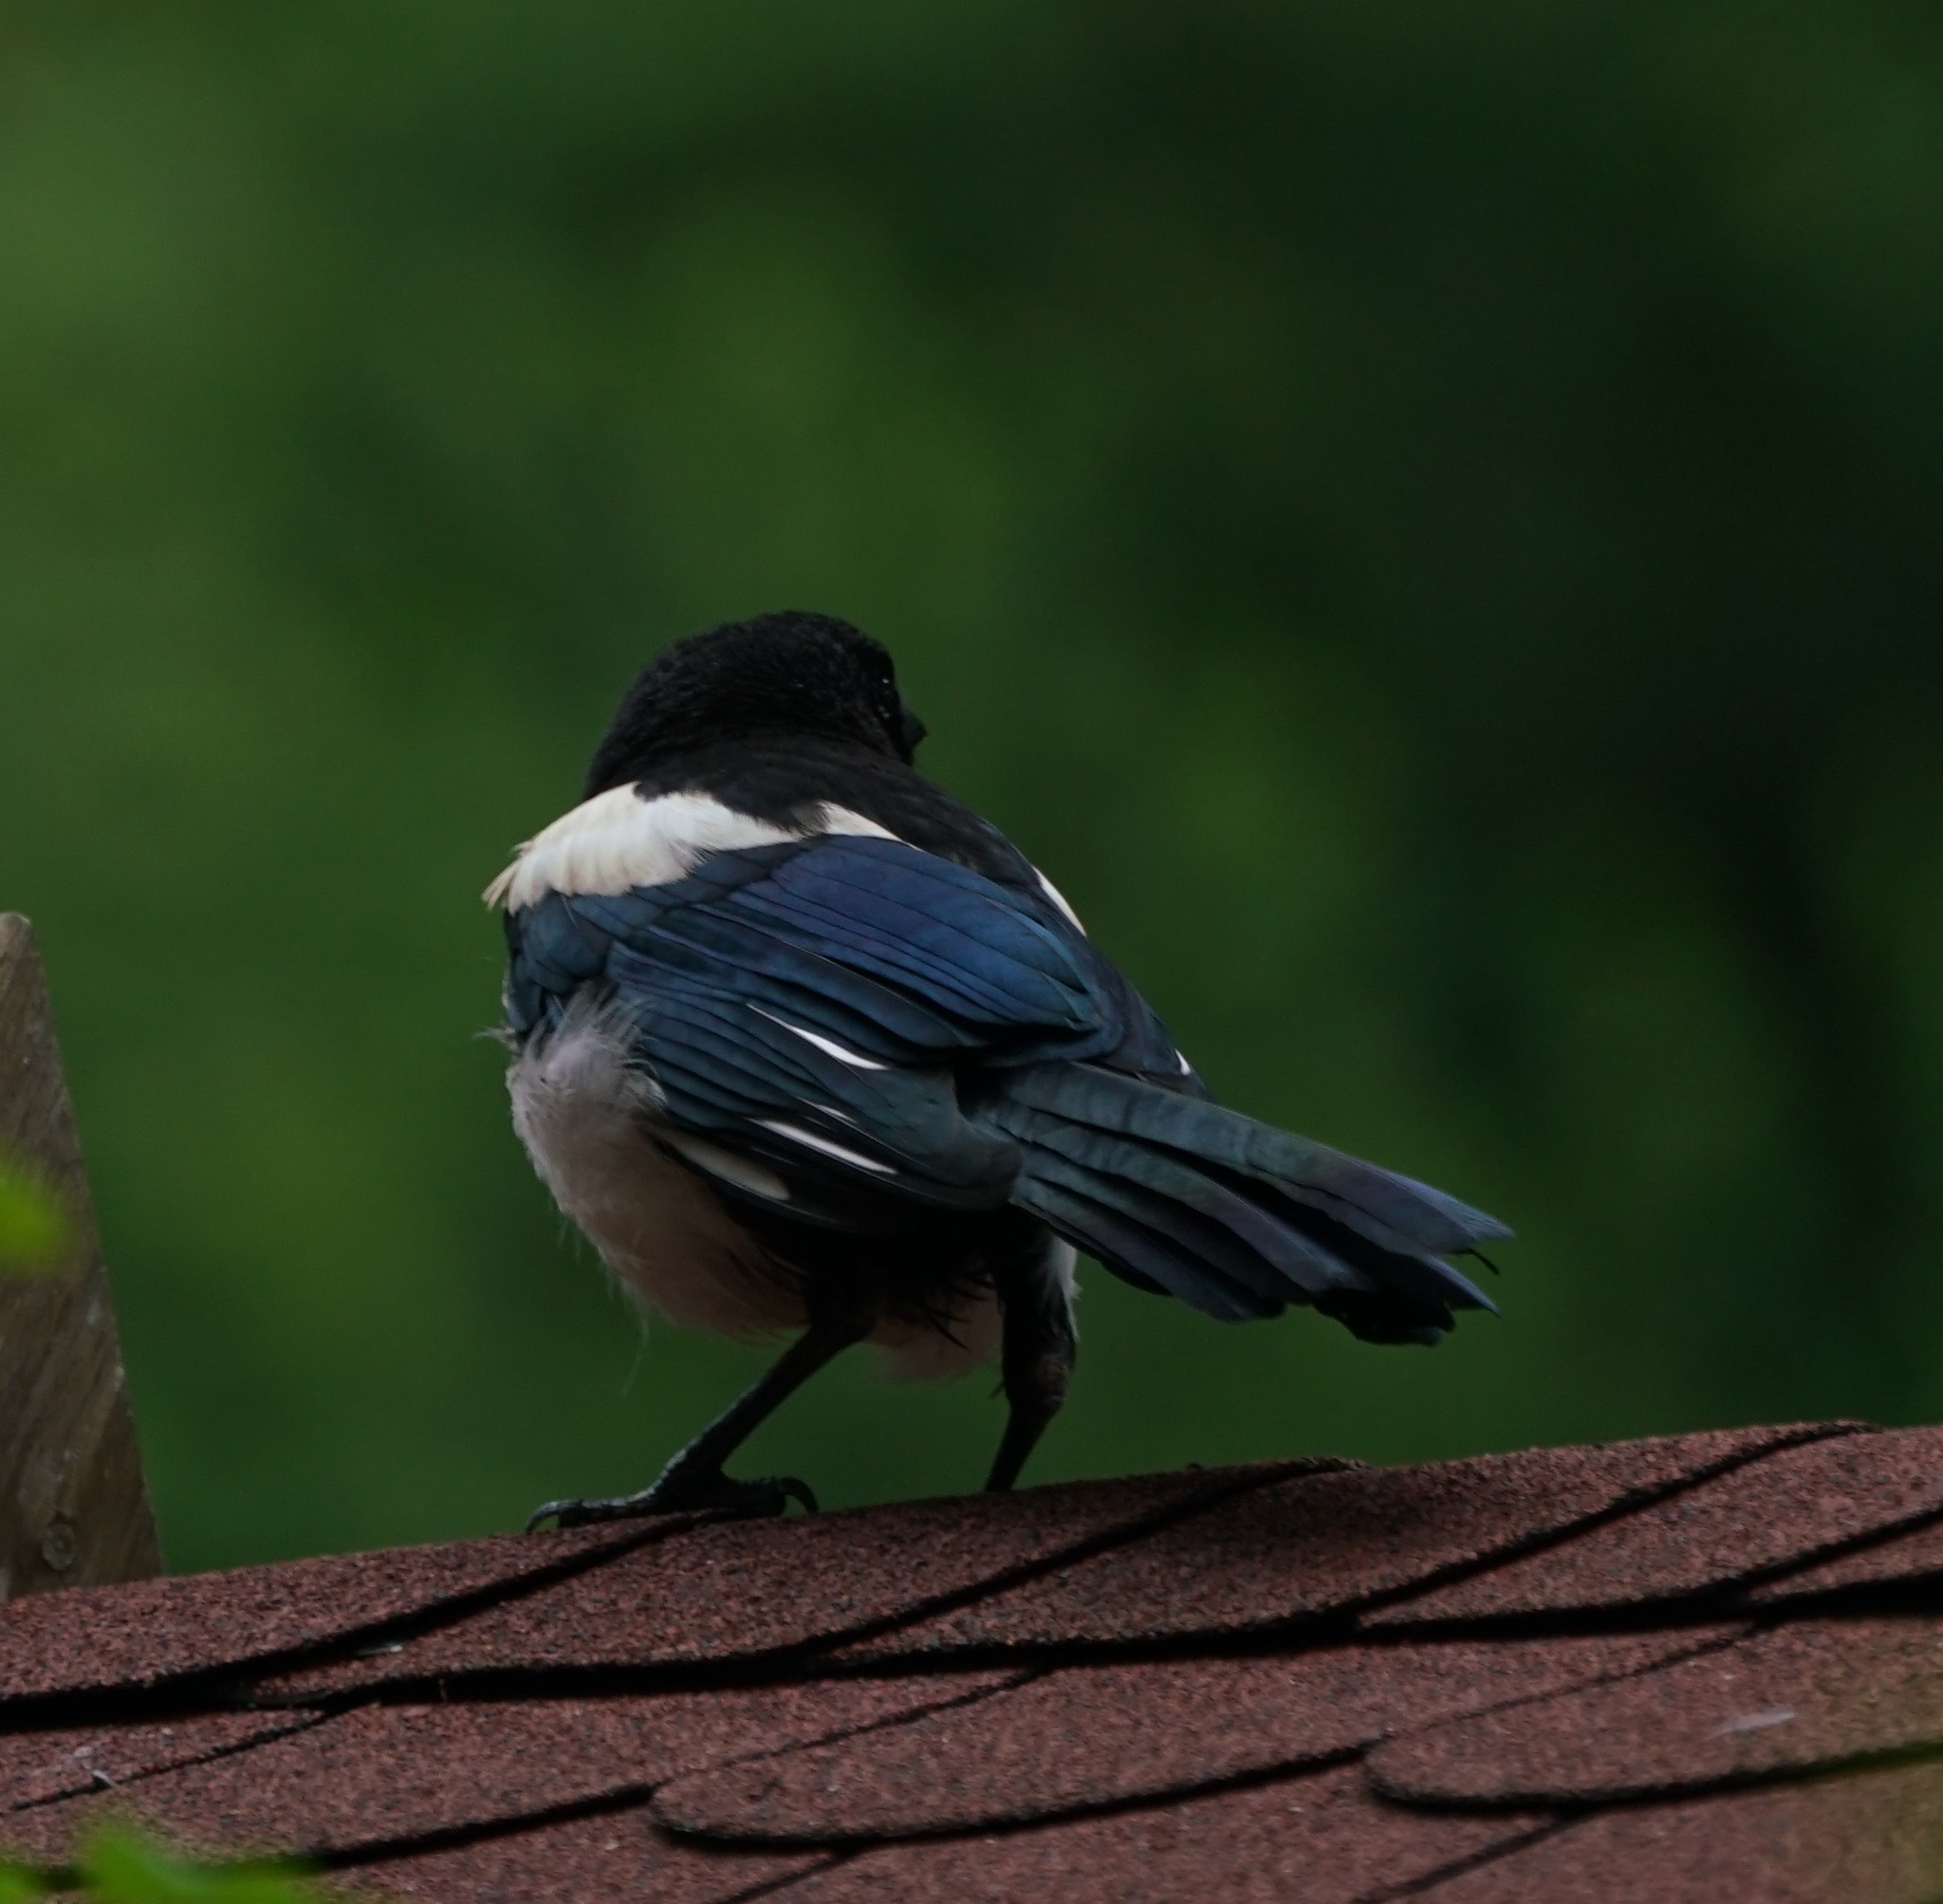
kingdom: Animalia
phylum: Chordata
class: Aves
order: Passeriformes
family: Corvidae
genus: Pica
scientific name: Pica pica
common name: Eurasian magpie
